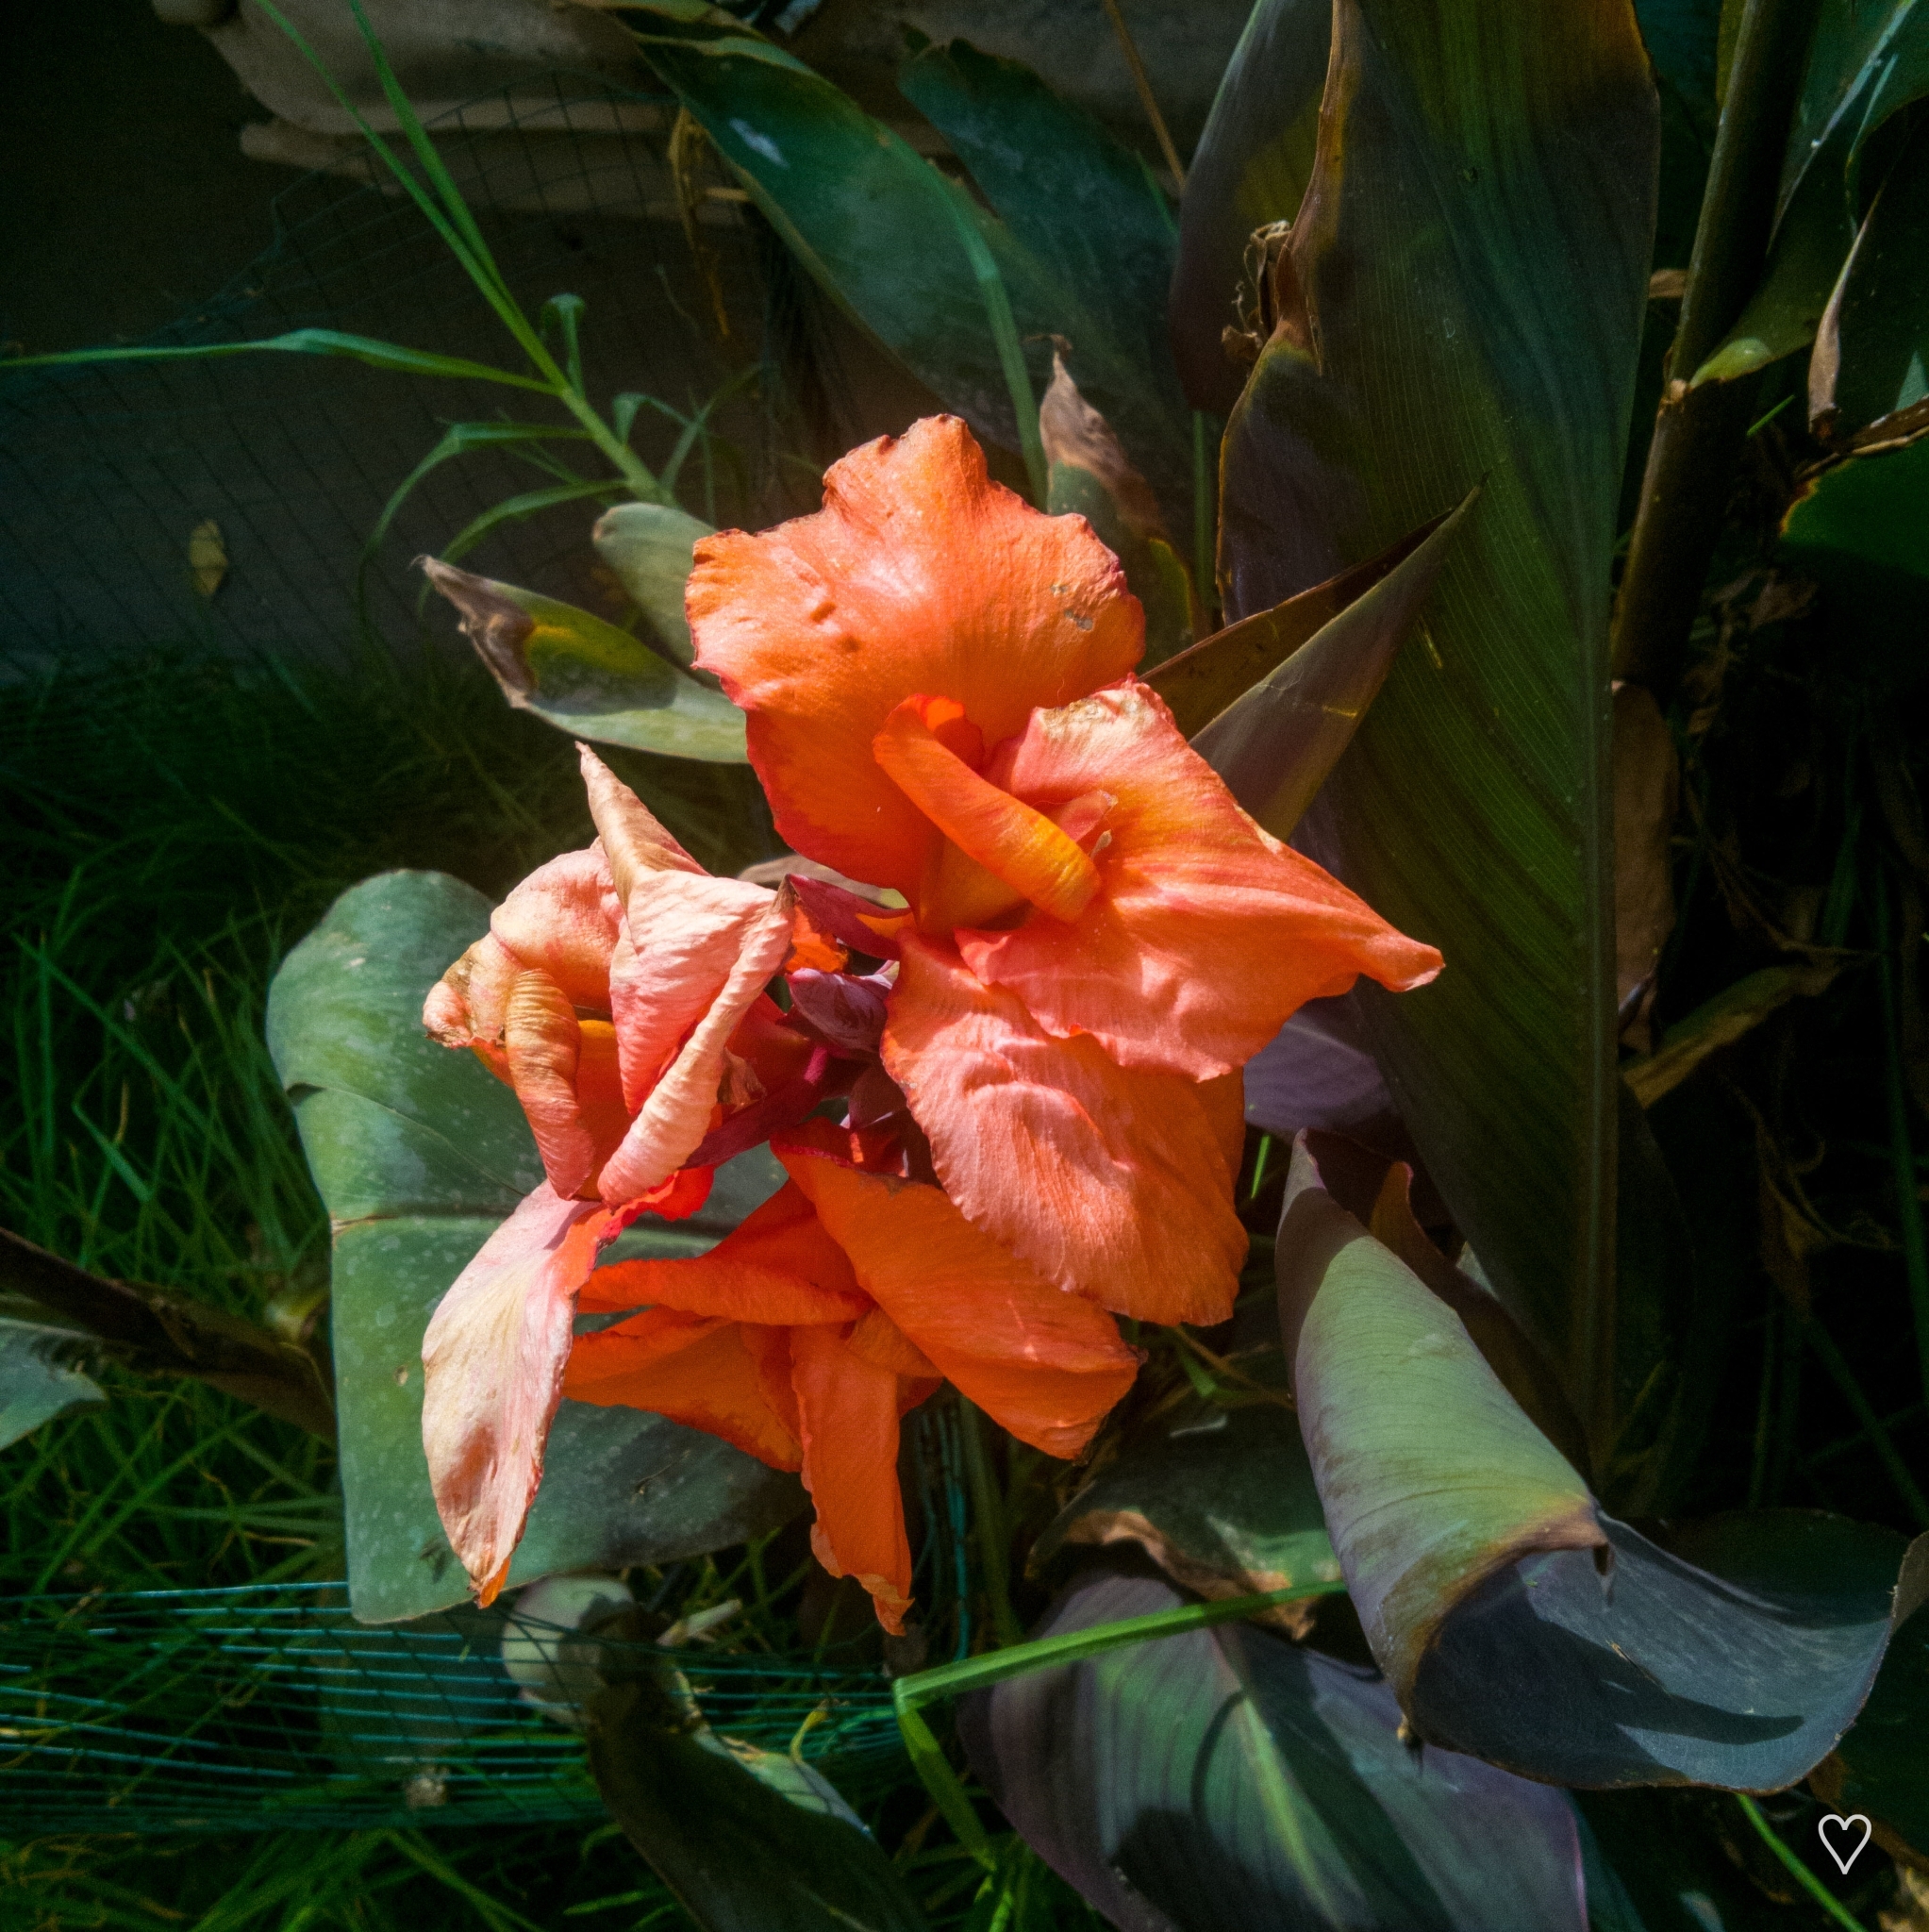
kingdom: Plantae
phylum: Tracheophyta
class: Liliopsida
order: Zingiberales
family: Cannaceae
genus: Canna
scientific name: Canna hybrida
